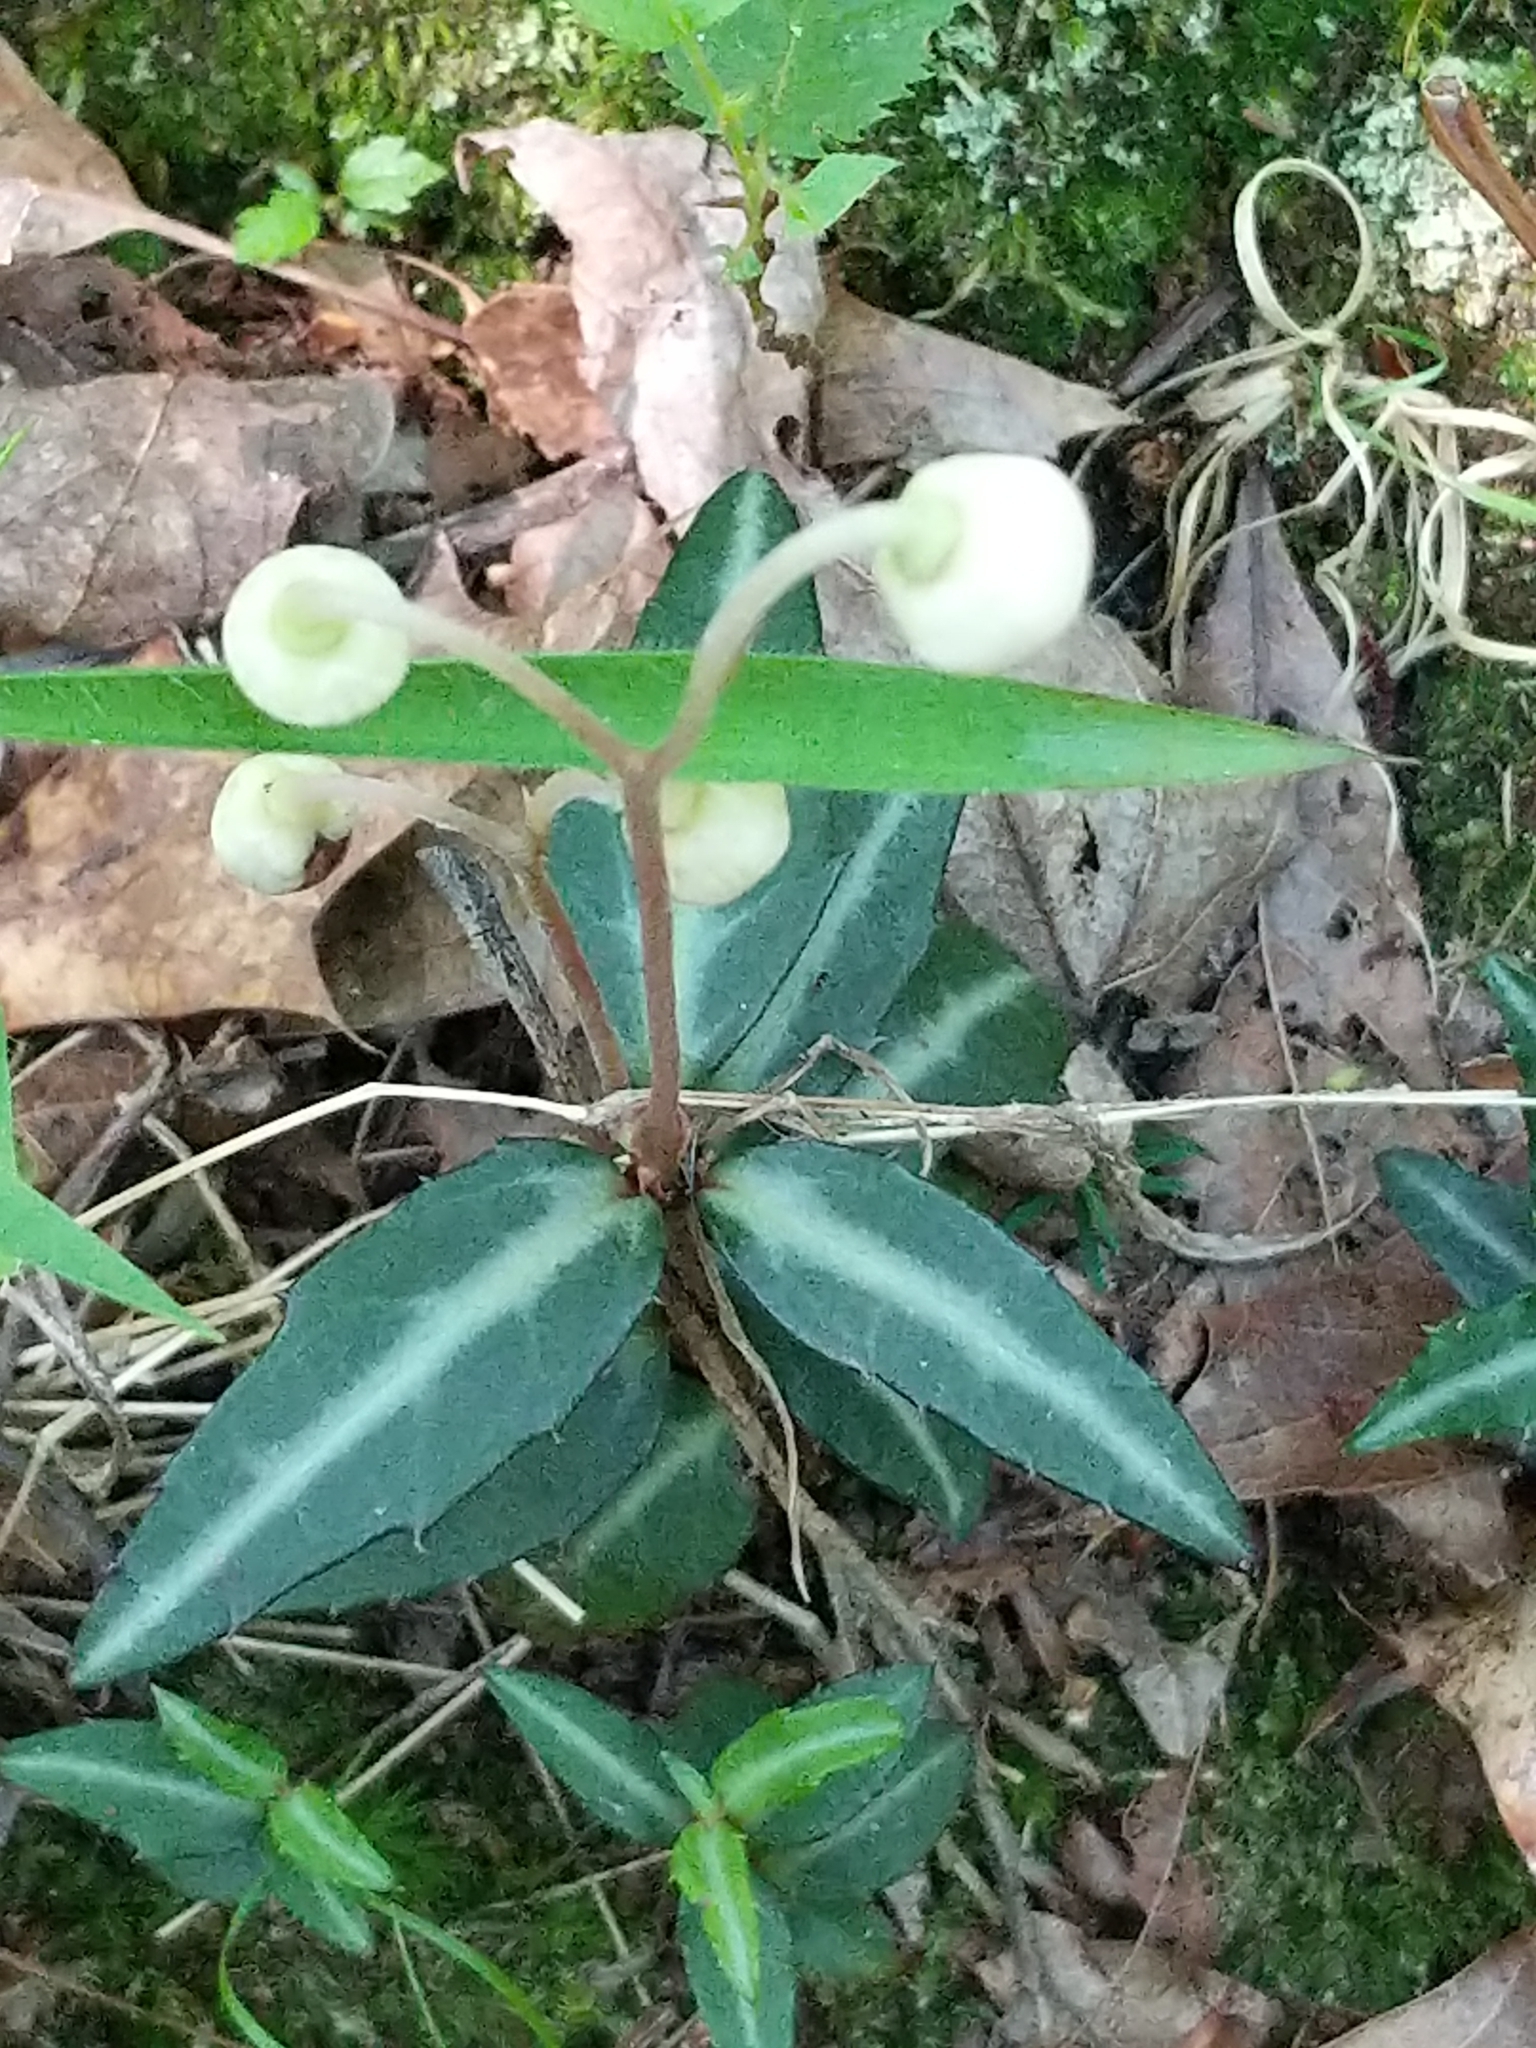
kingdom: Plantae
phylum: Tracheophyta
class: Magnoliopsida
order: Ericales
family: Ericaceae
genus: Chimaphila
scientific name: Chimaphila maculata
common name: Spotted pipsissewa
